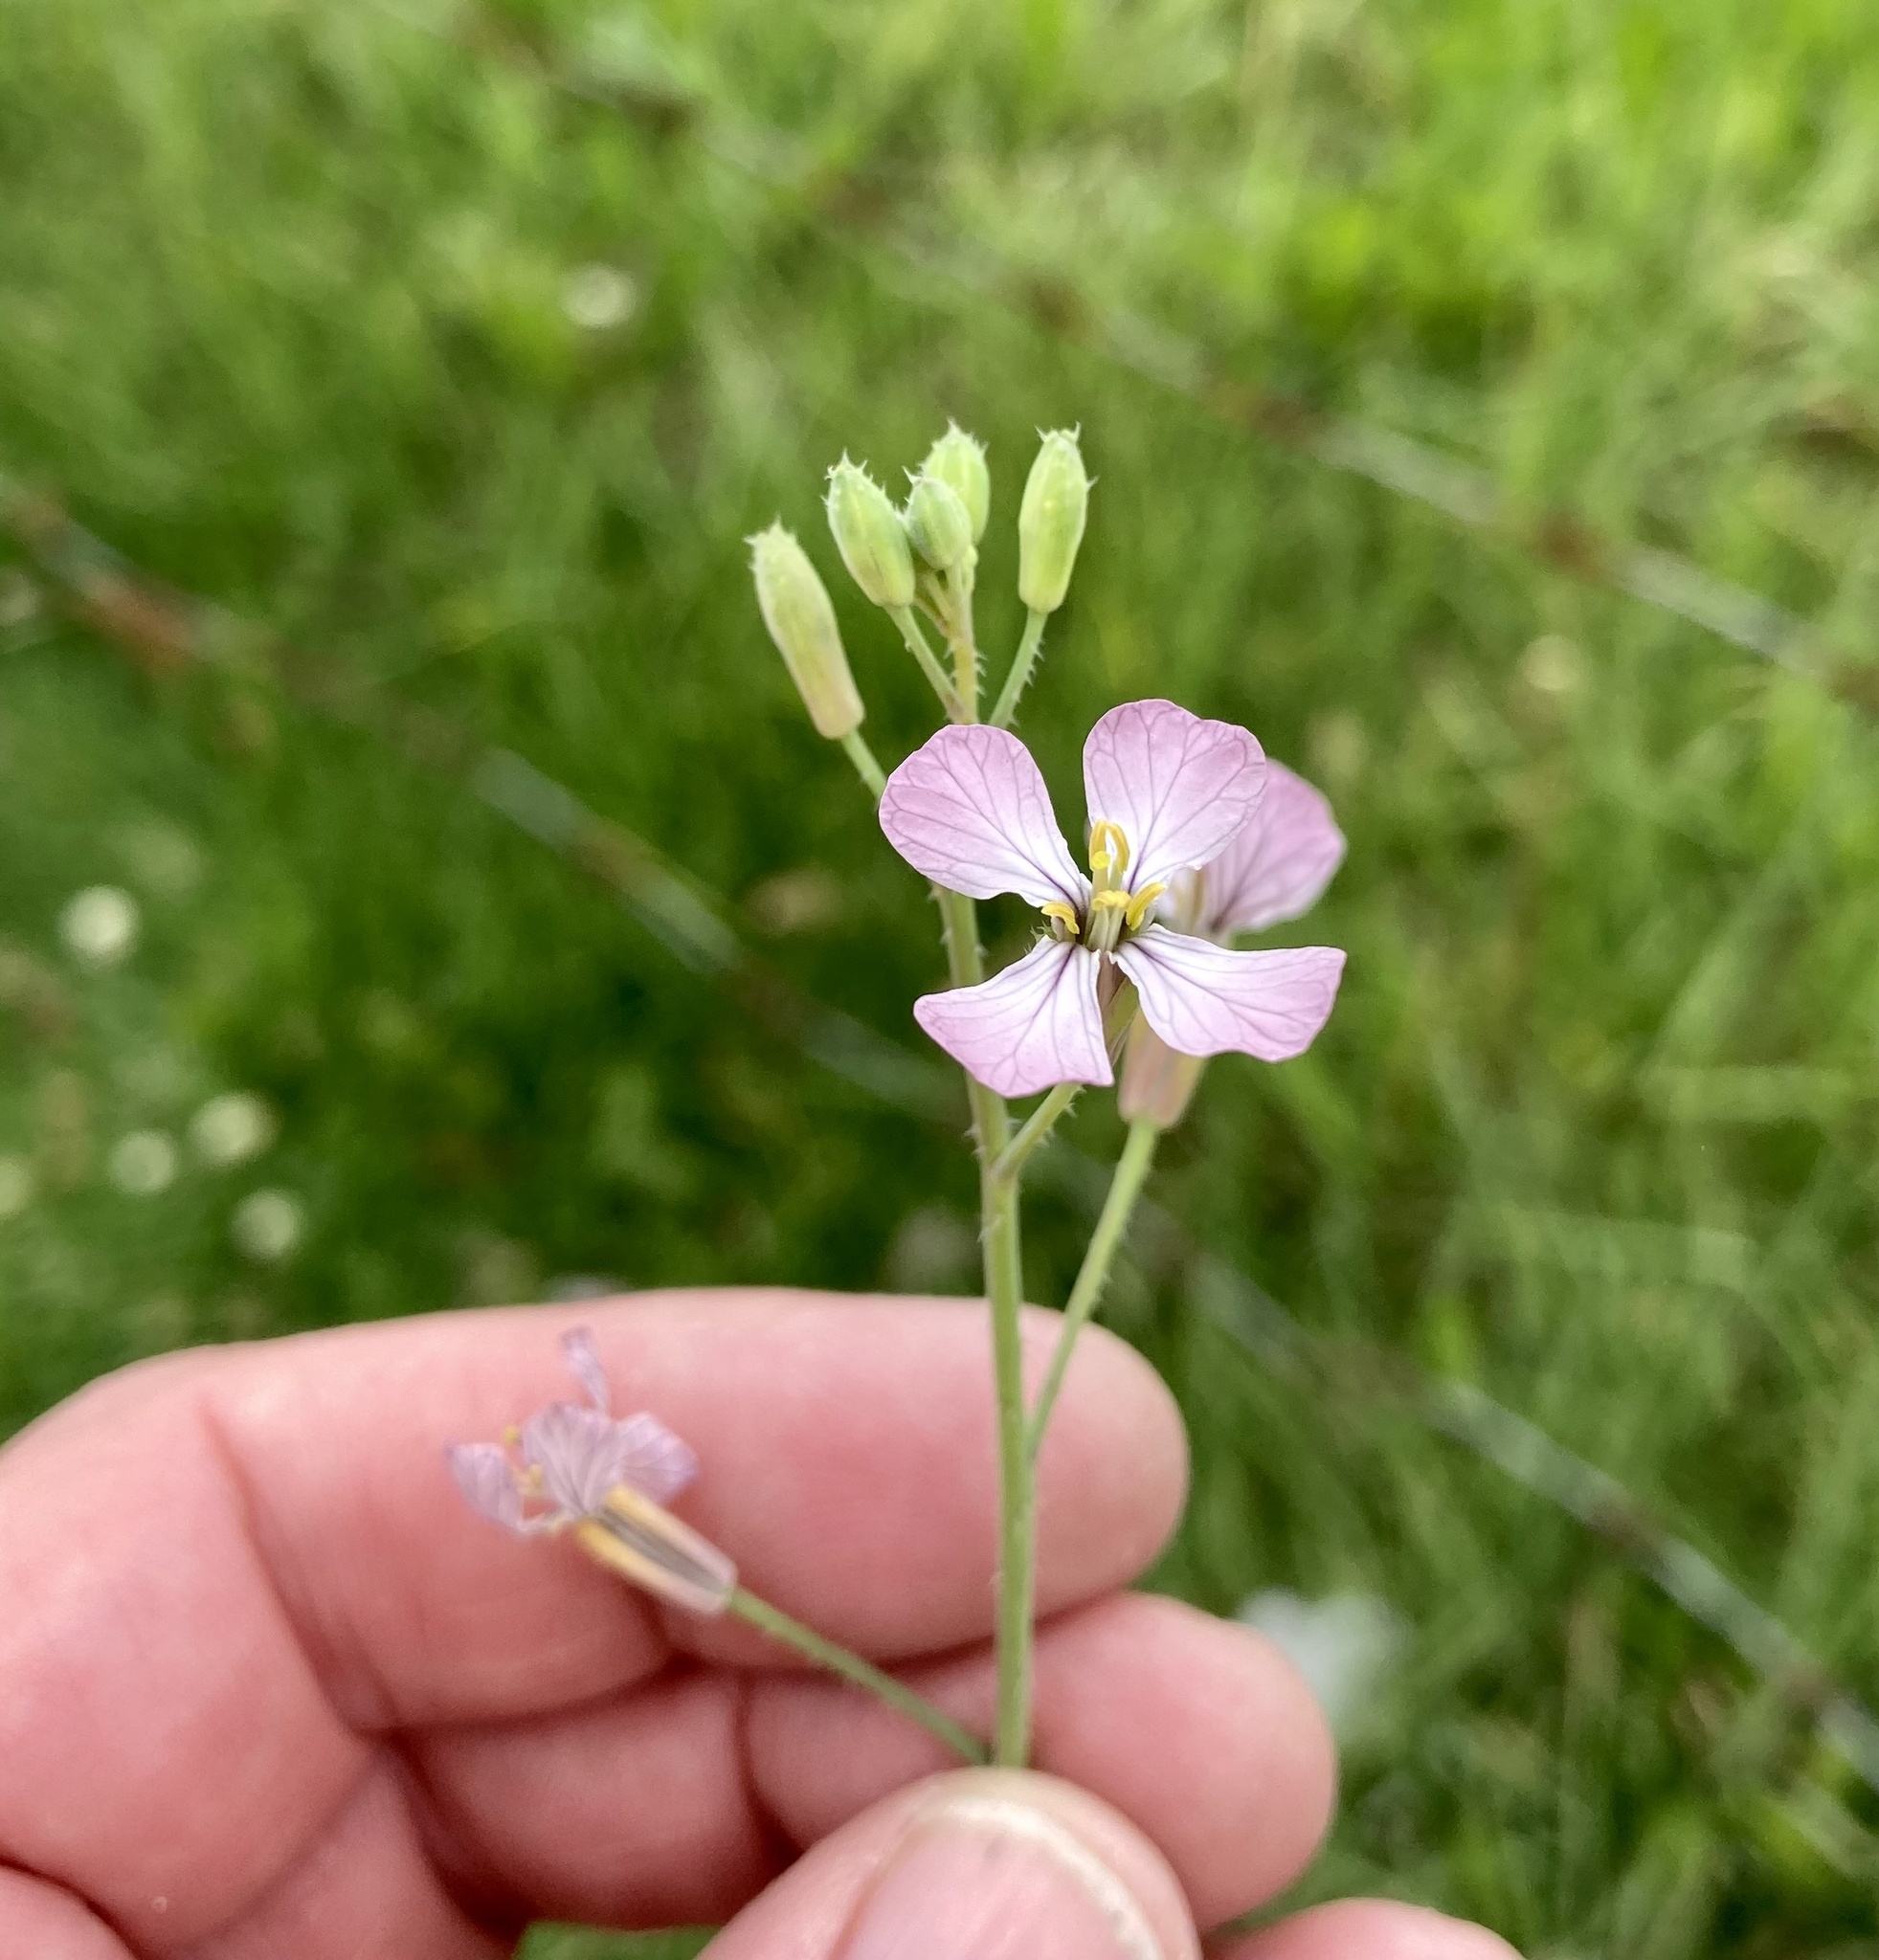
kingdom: Plantae
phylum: Tracheophyta
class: Magnoliopsida
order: Brassicales
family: Brassicaceae
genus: Raphanus
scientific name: Raphanus sativus
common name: Cultivated radish
